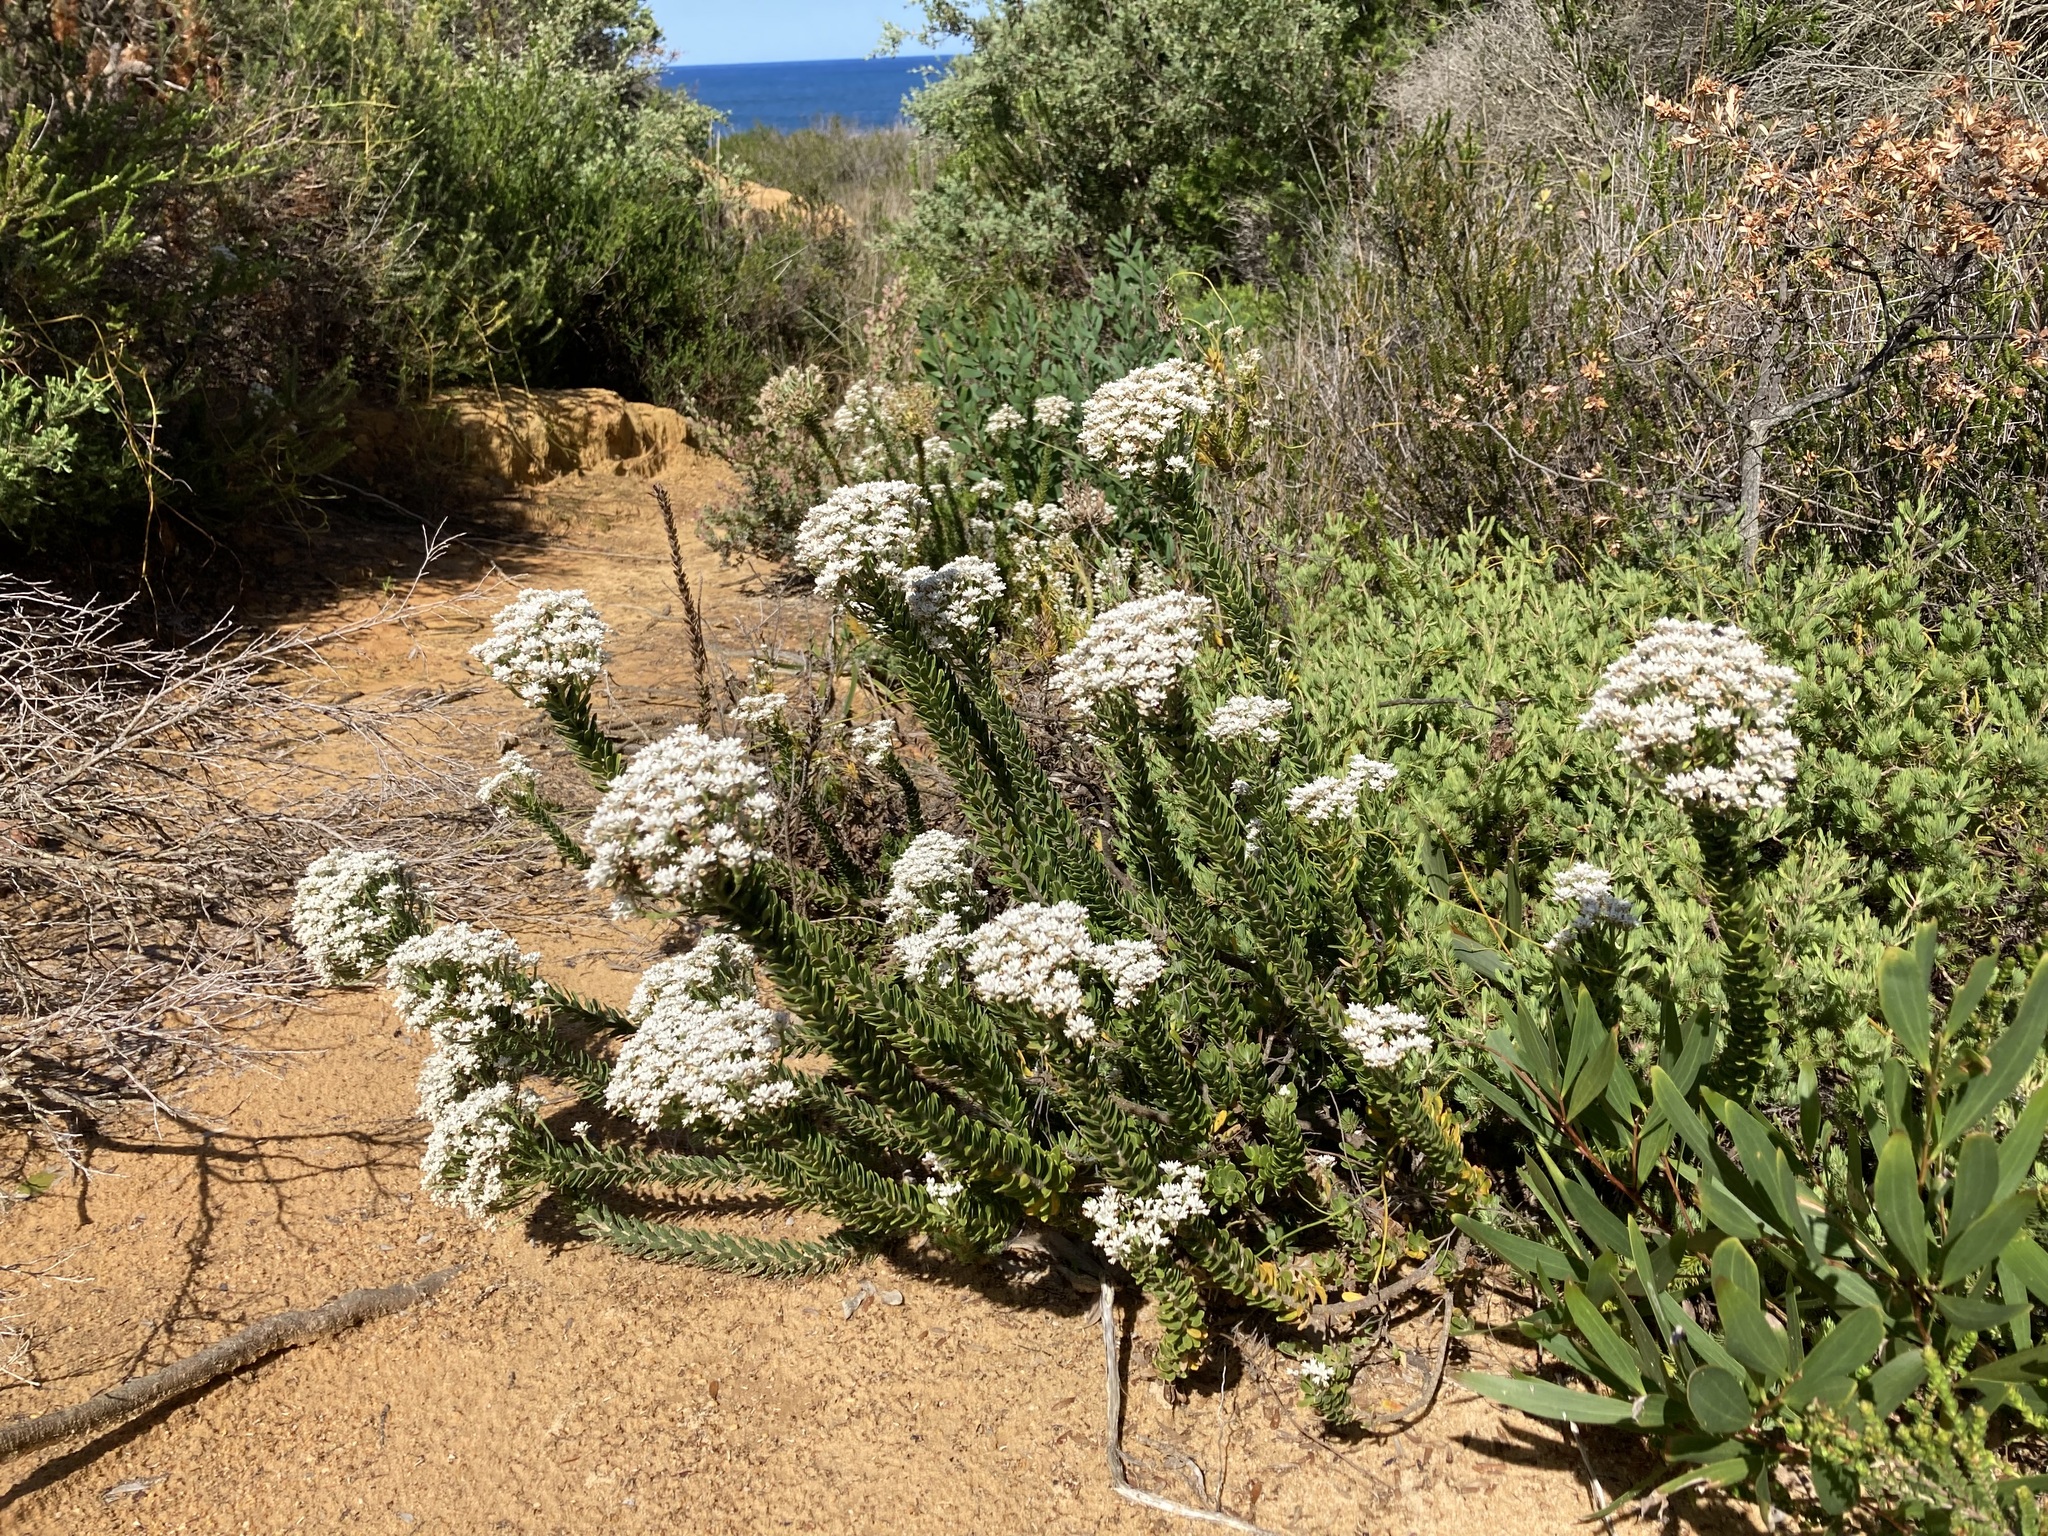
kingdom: Plantae
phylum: Tracheophyta
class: Magnoliopsida
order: Proteales
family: Proteaceae
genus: Conospermum
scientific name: Conospermum ellipticum
